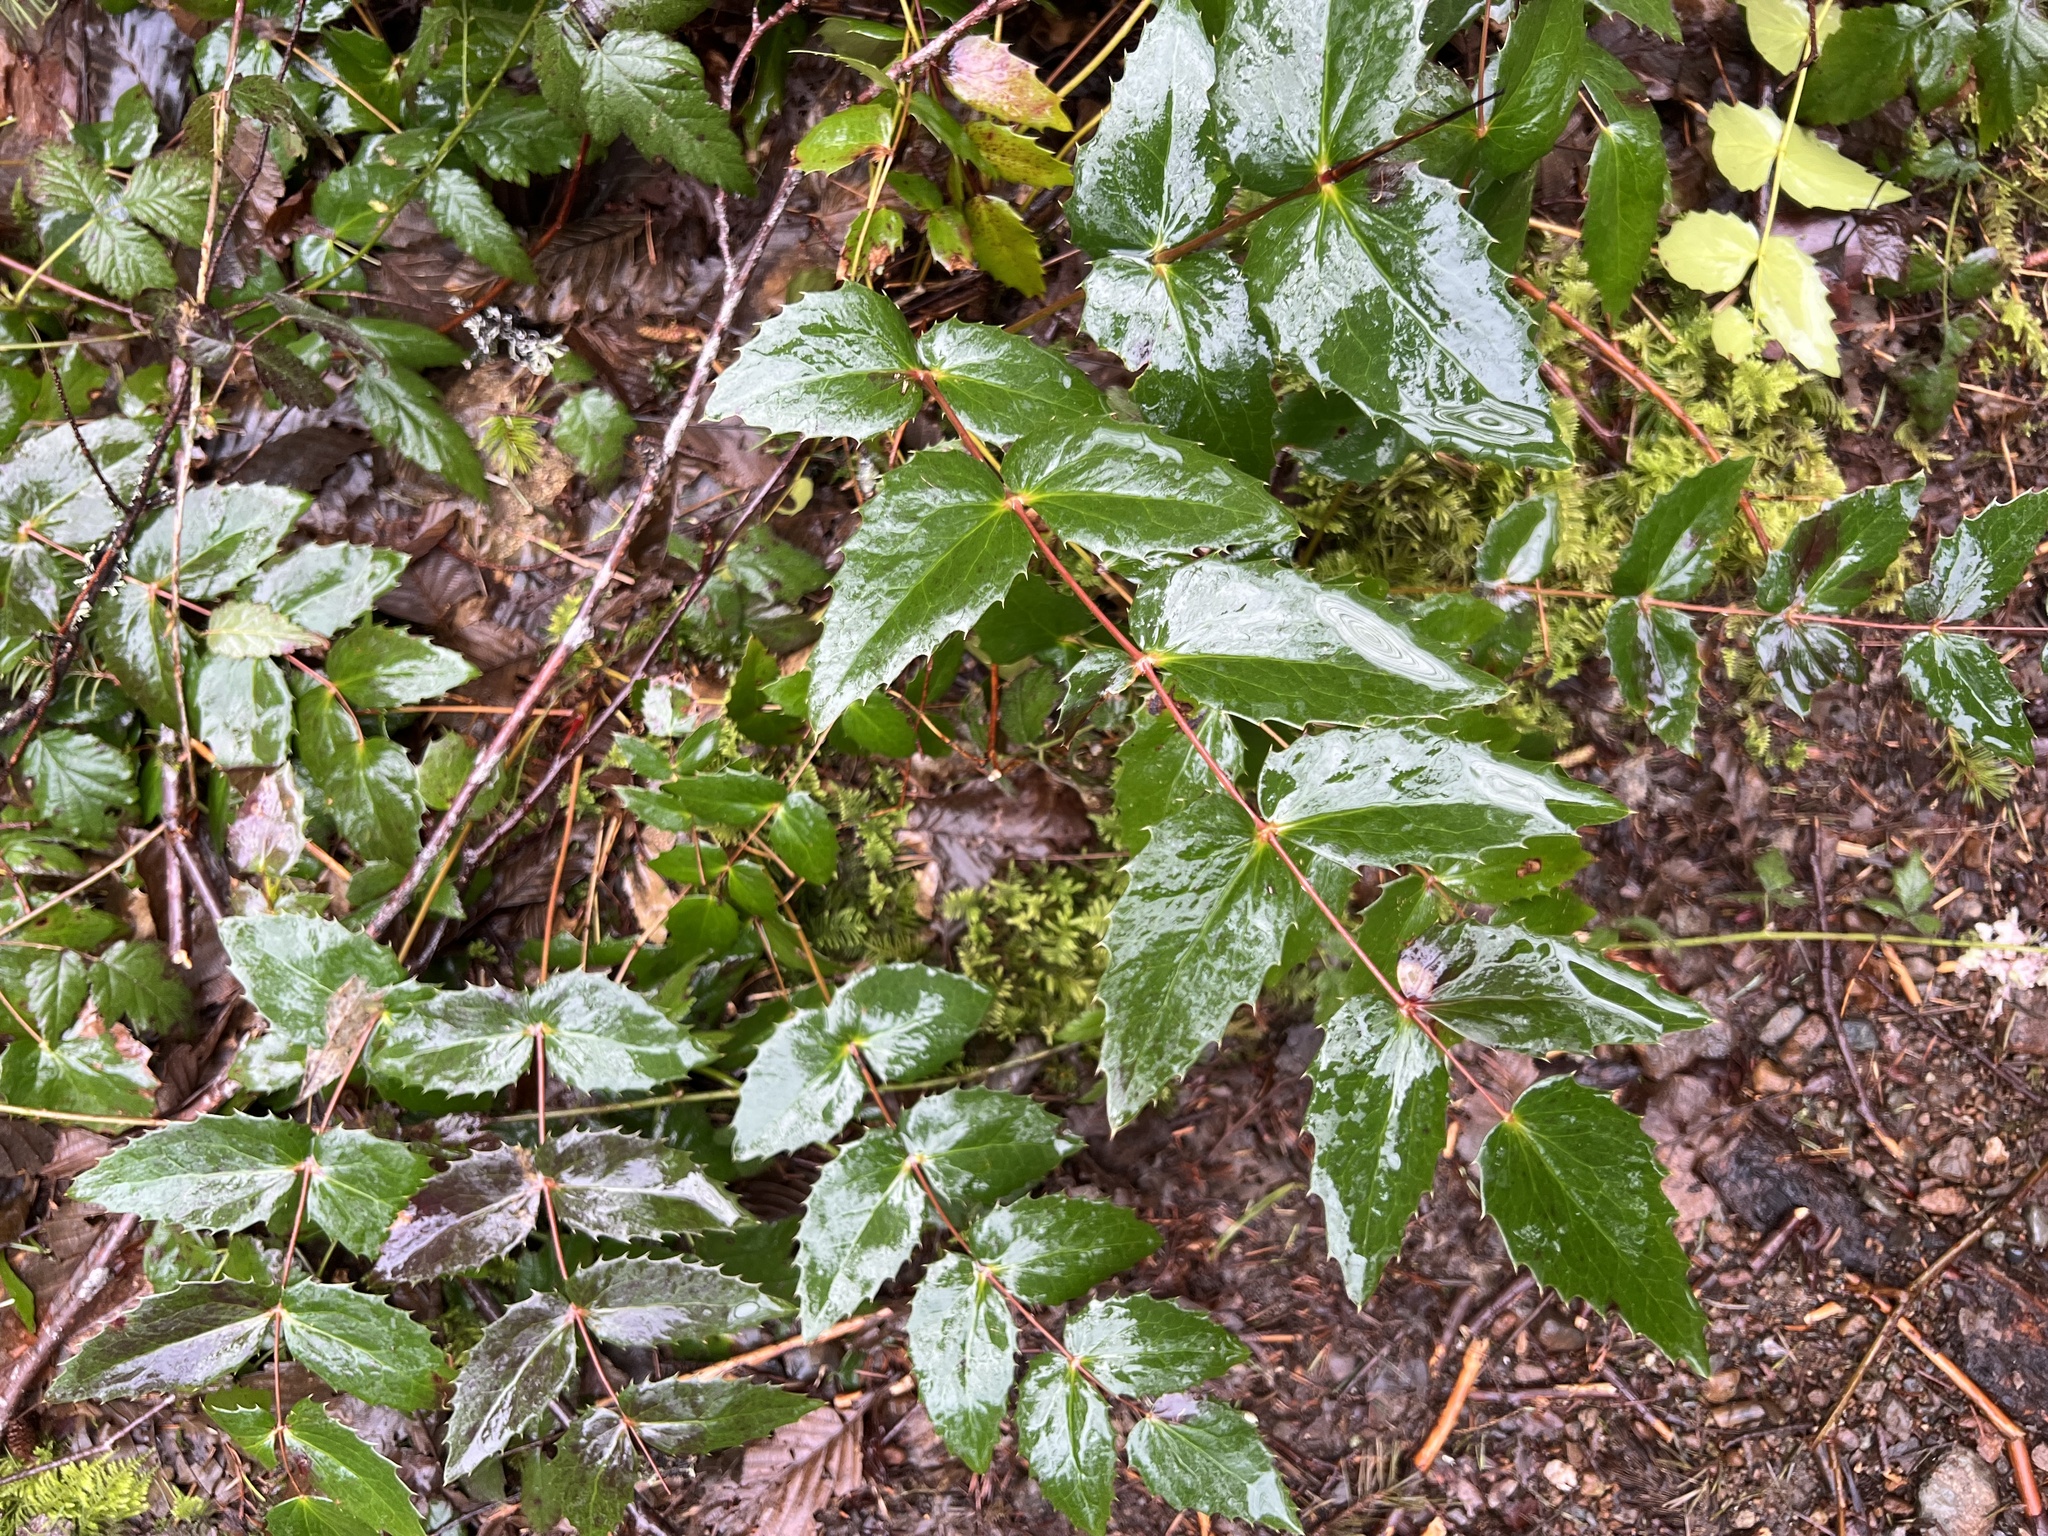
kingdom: Plantae
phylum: Tracheophyta
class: Magnoliopsida
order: Ranunculales
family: Berberidaceae
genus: Mahonia
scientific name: Mahonia nervosa
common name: Cascade oregon-grape
